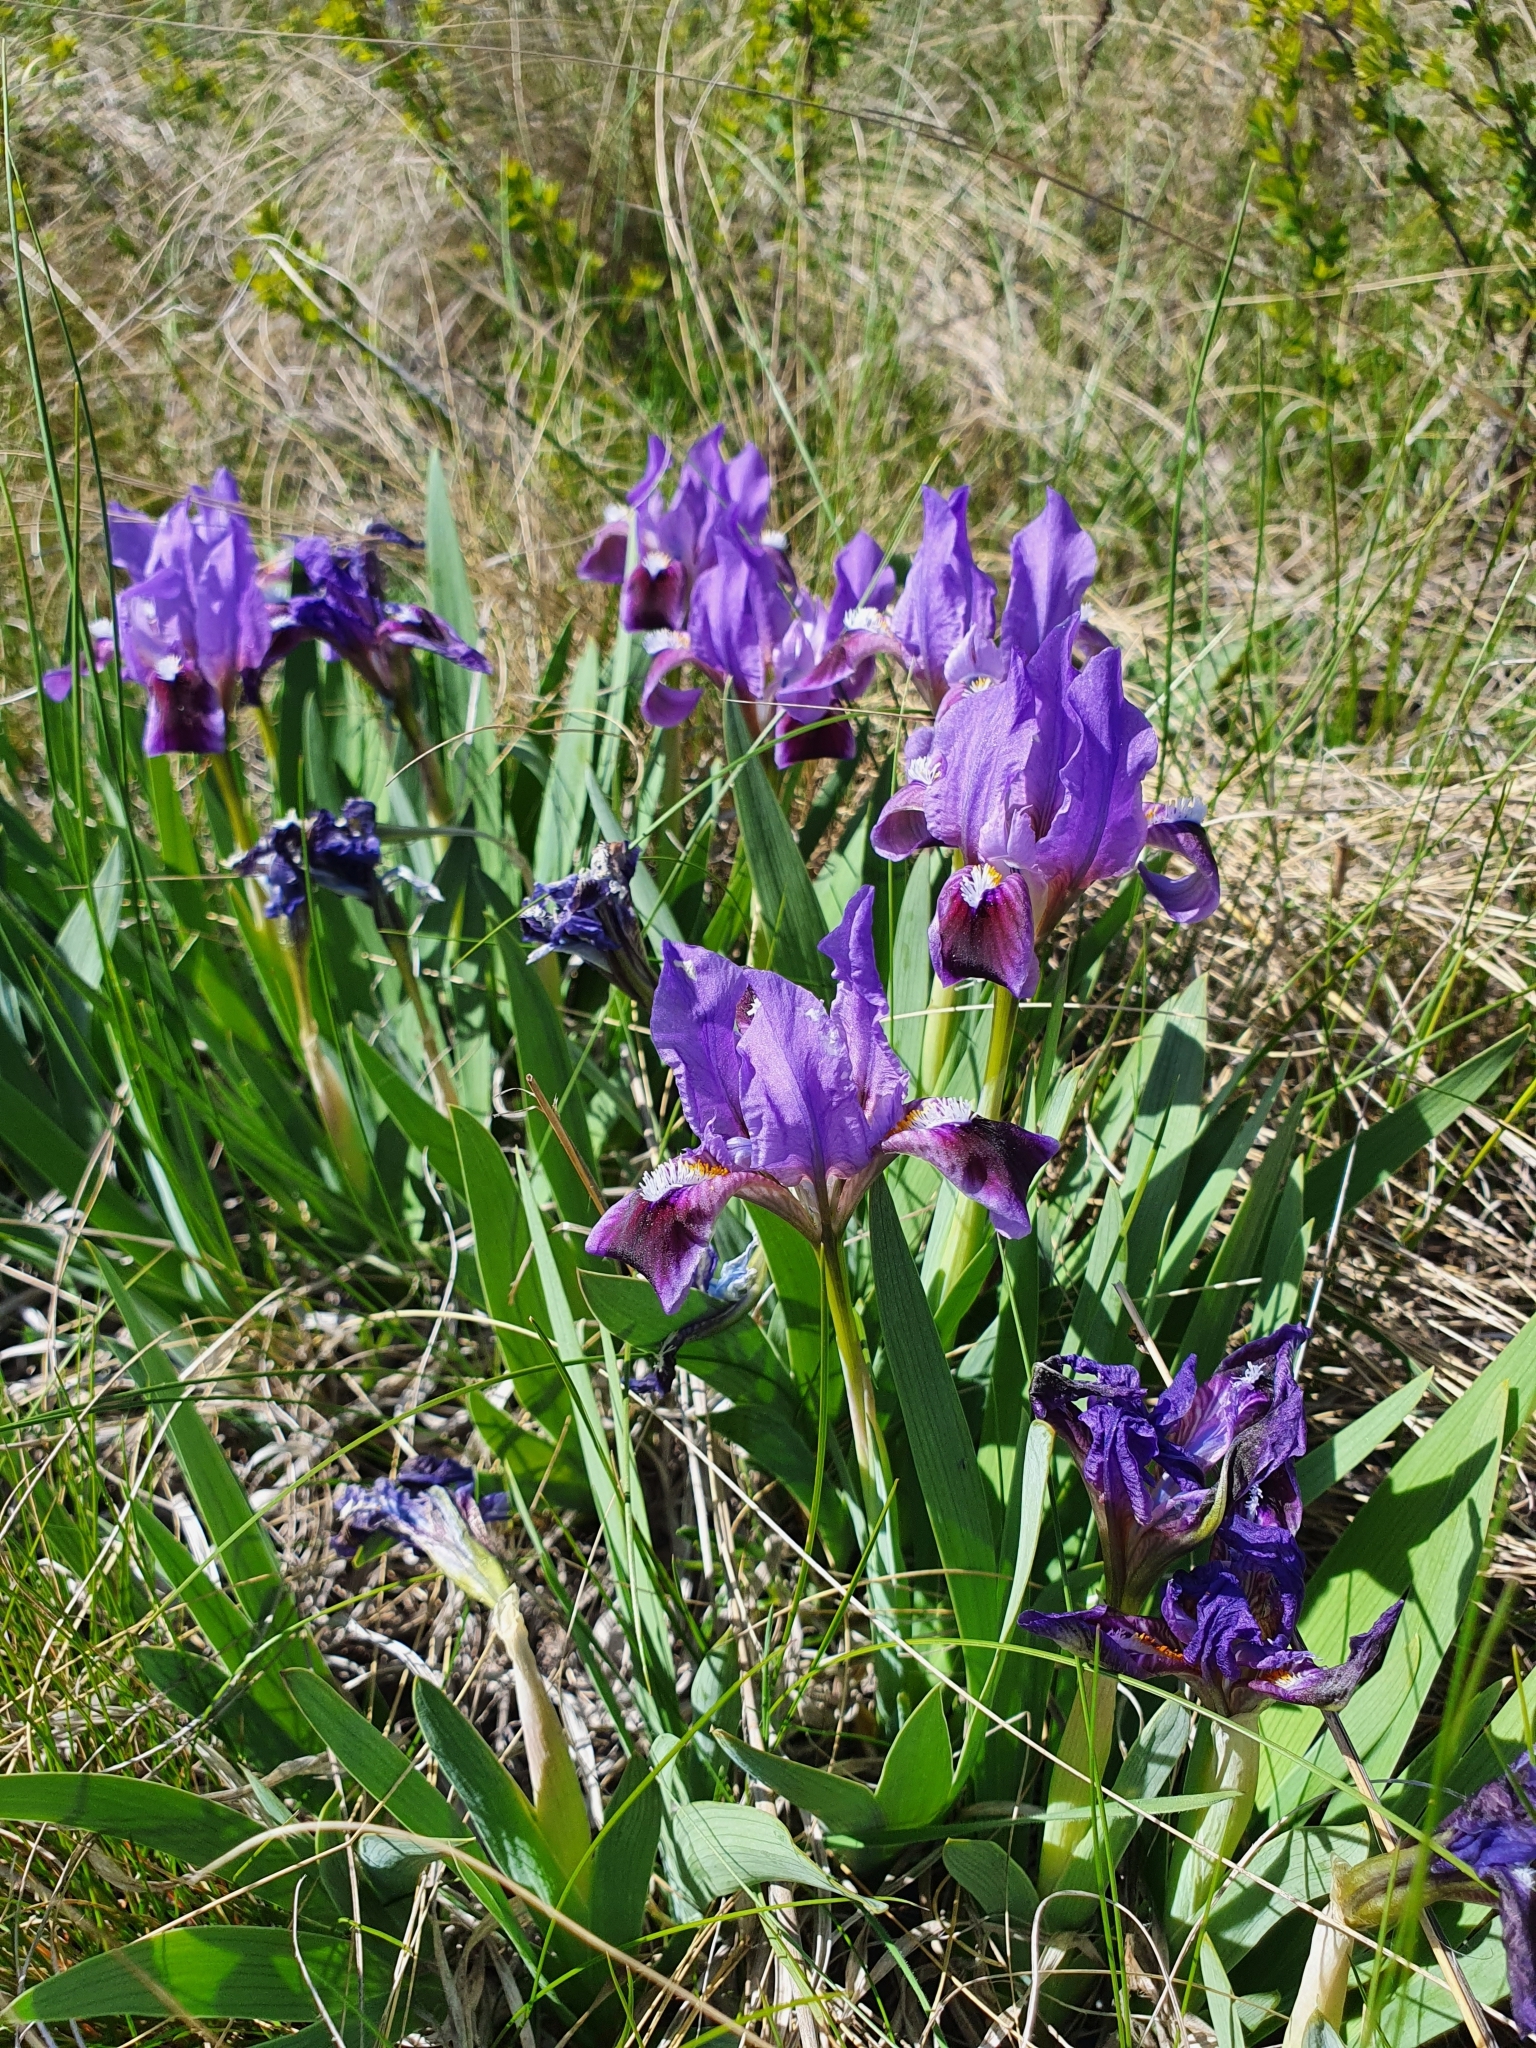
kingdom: Plantae
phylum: Tracheophyta
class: Liliopsida
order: Asparagales
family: Iridaceae
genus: Iris
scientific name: Iris pumila
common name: Dwarf iris
